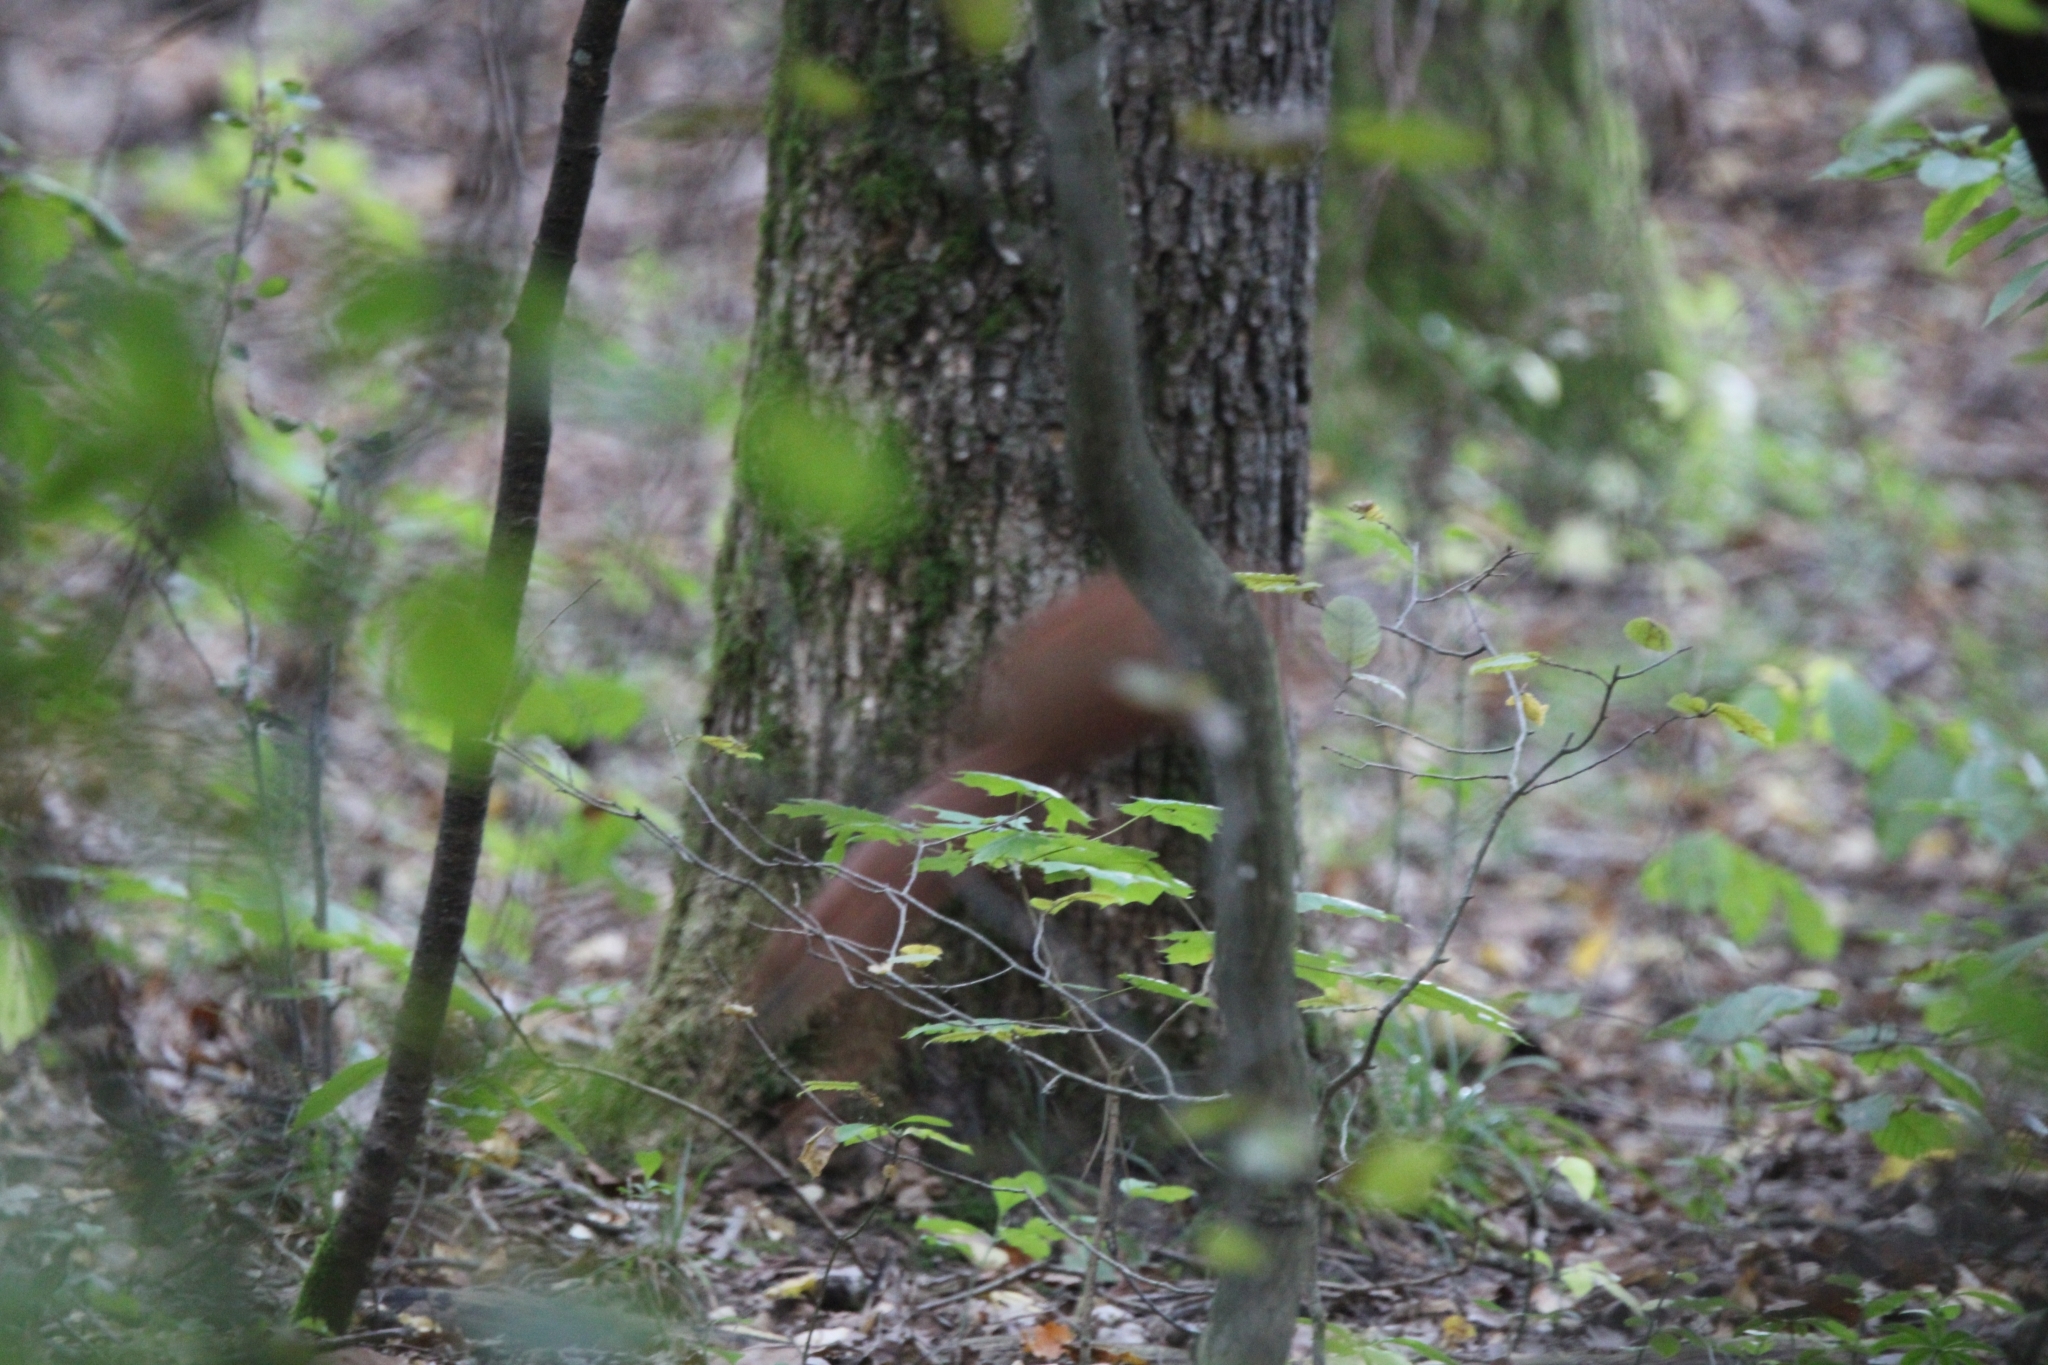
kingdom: Animalia
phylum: Chordata
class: Mammalia
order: Rodentia
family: Sciuridae
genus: Sciurus
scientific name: Sciurus vulgaris
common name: Eurasian red squirrel
